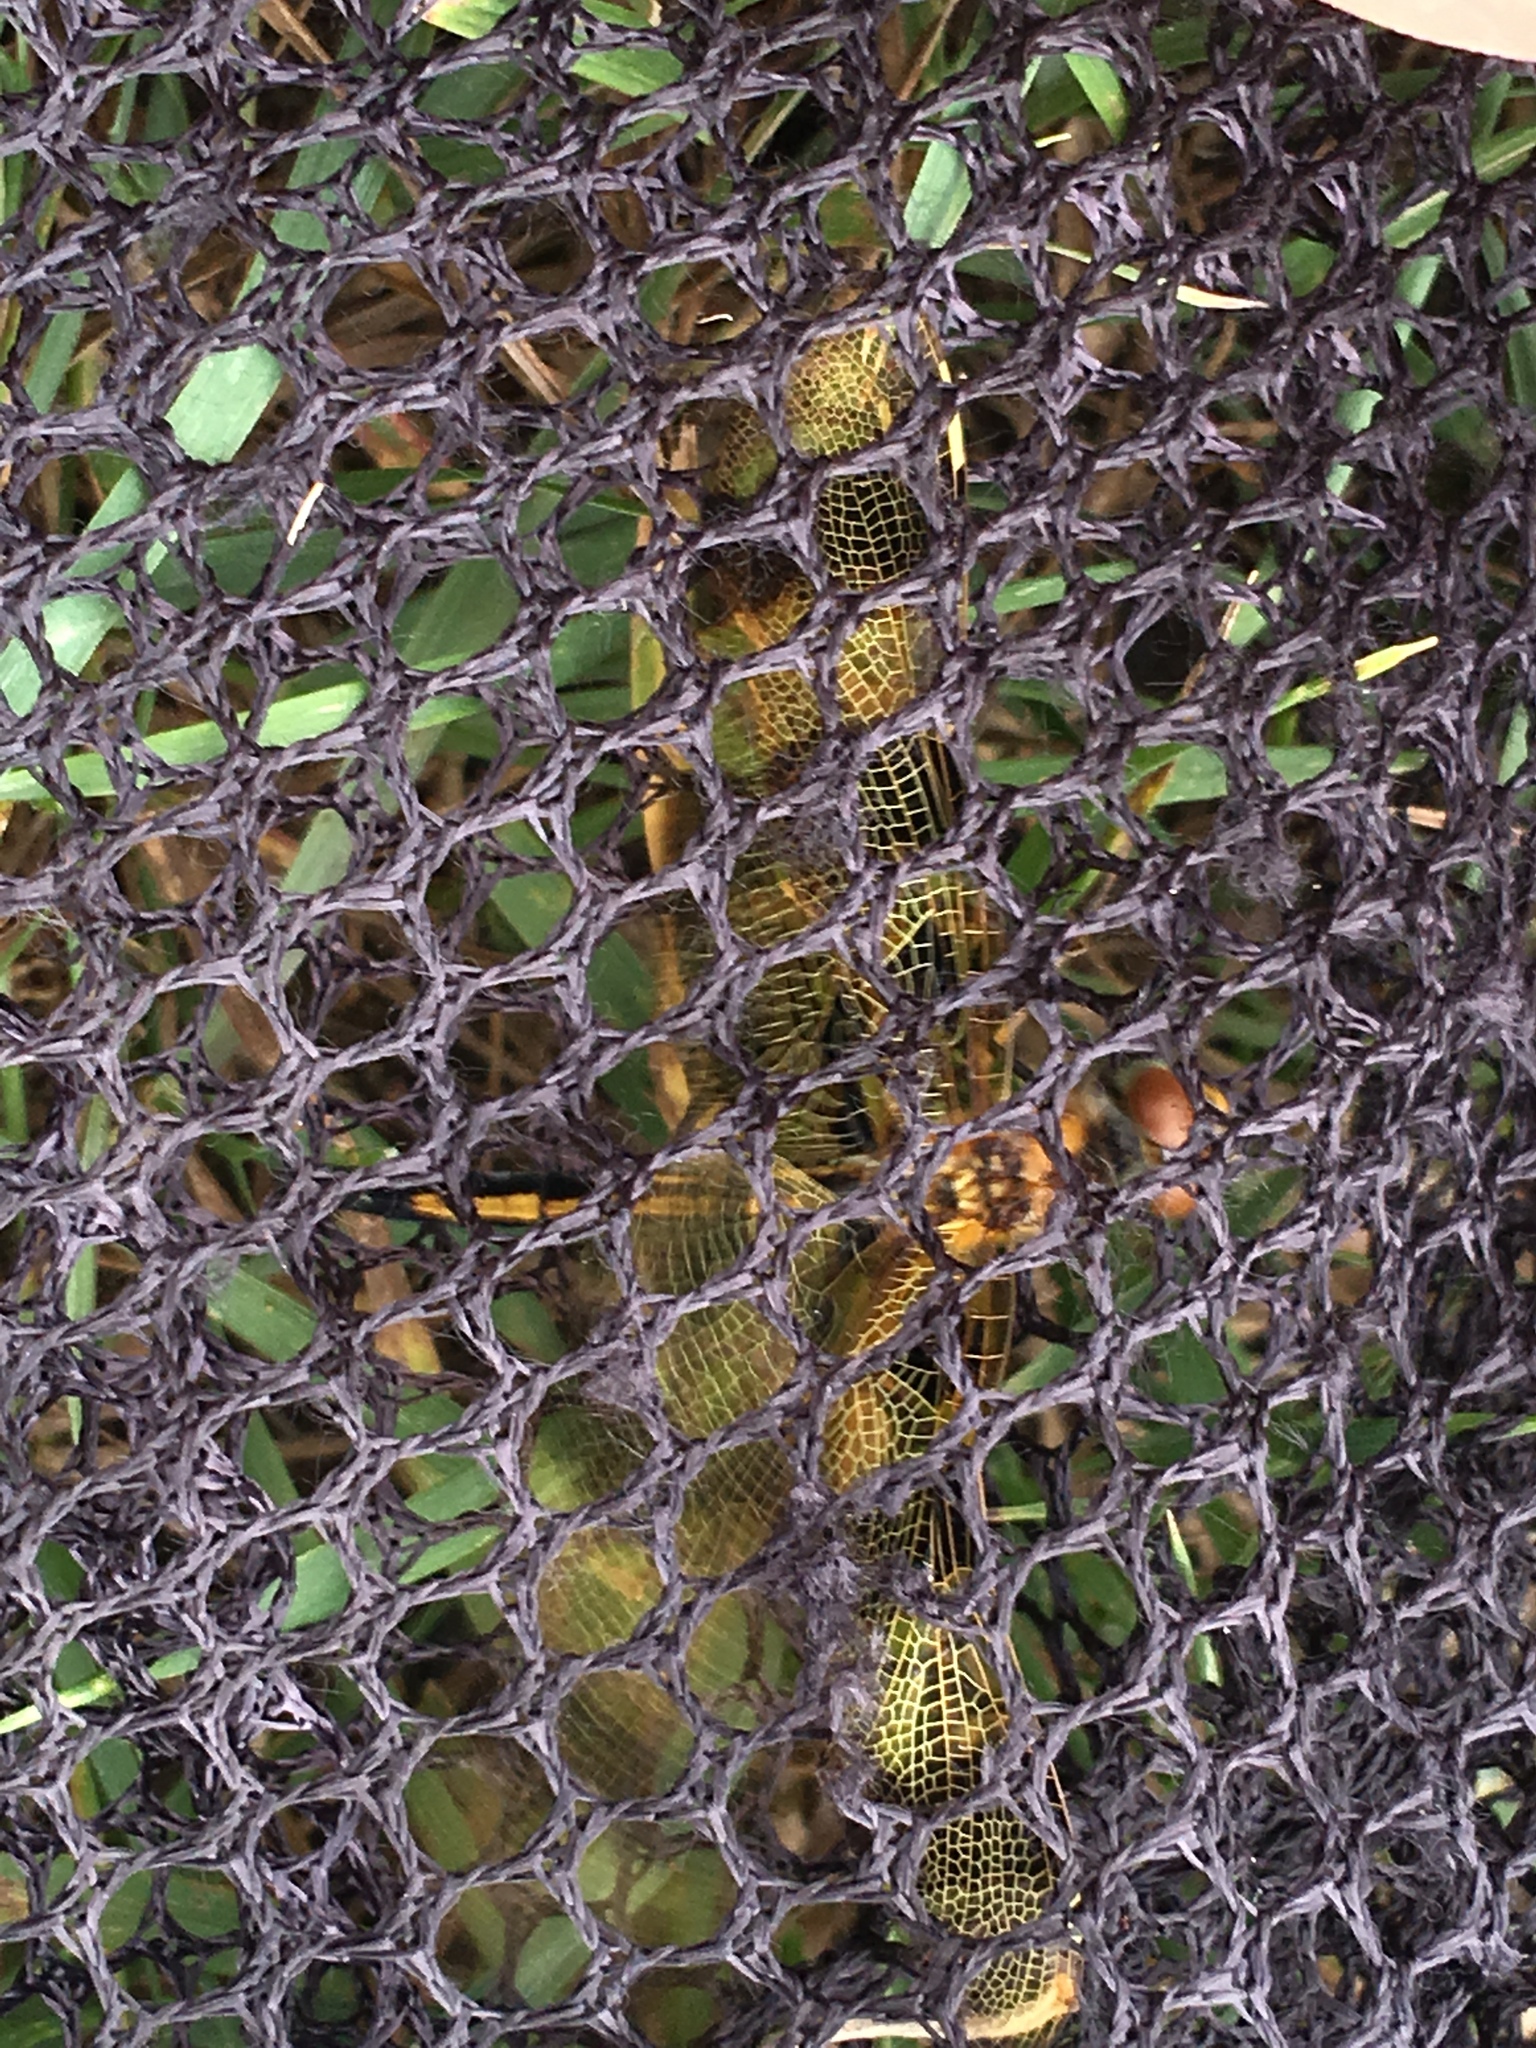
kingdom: Animalia
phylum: Arthropoda
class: Insecta
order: Odonata
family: Libellulidae
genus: Celithemis
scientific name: Celithemis eponina
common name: Halloween pennant
